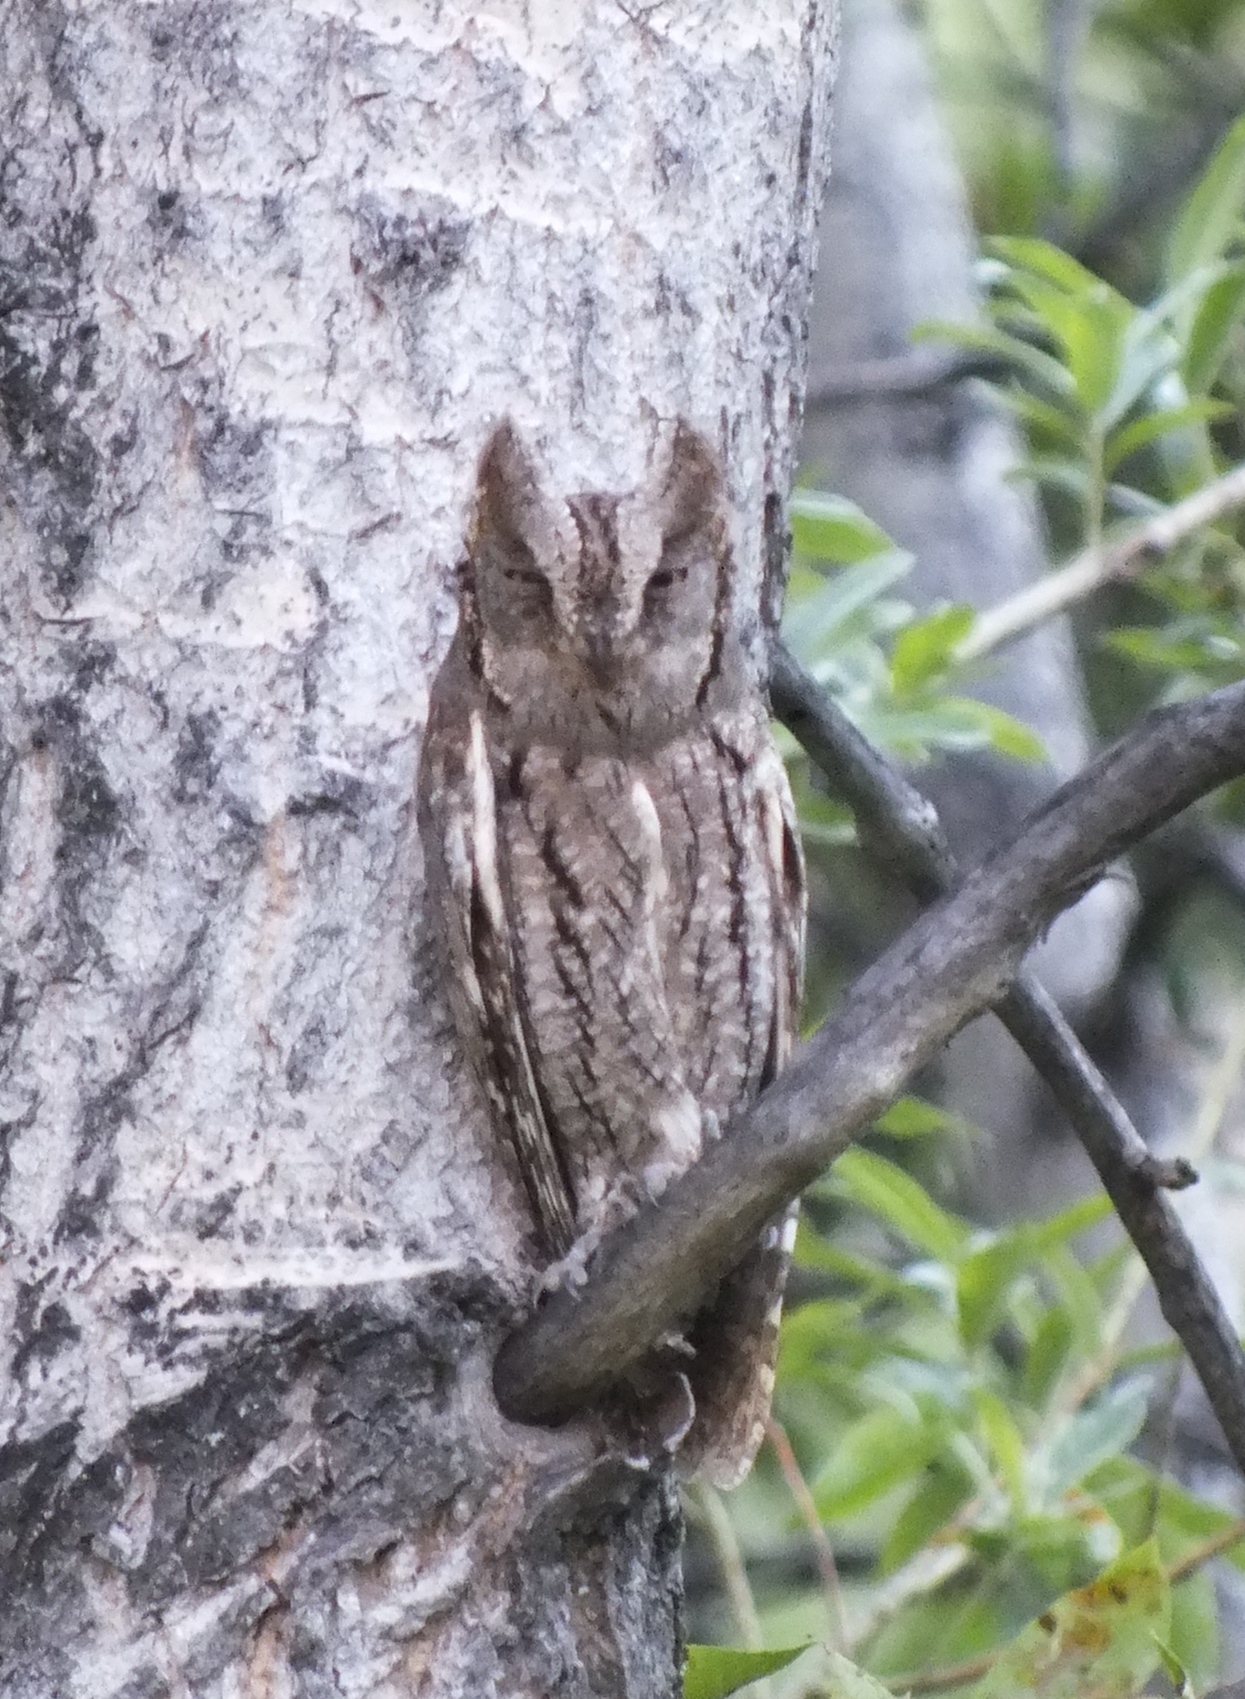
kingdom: Animalia
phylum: Chordata
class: Aves
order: Strigiformes
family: Strigidae
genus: Otus
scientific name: Otus scops
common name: Eurasian scops owl
